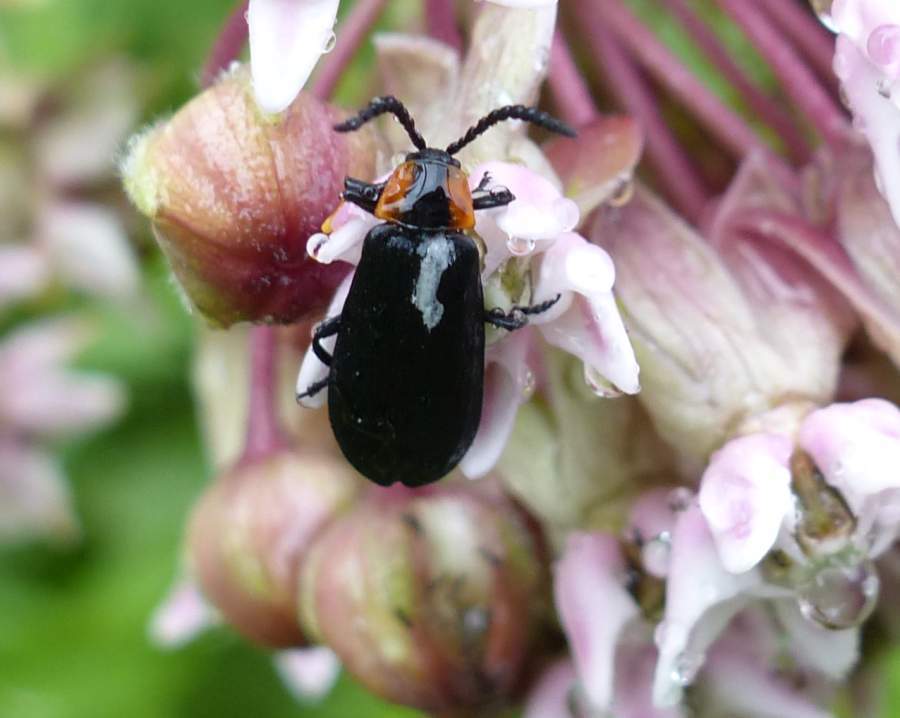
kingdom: Animalia
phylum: Arthropoda
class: Insecta
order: Coleoptera
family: Lycidae
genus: Calochromus
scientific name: Calochromus perfacetus
